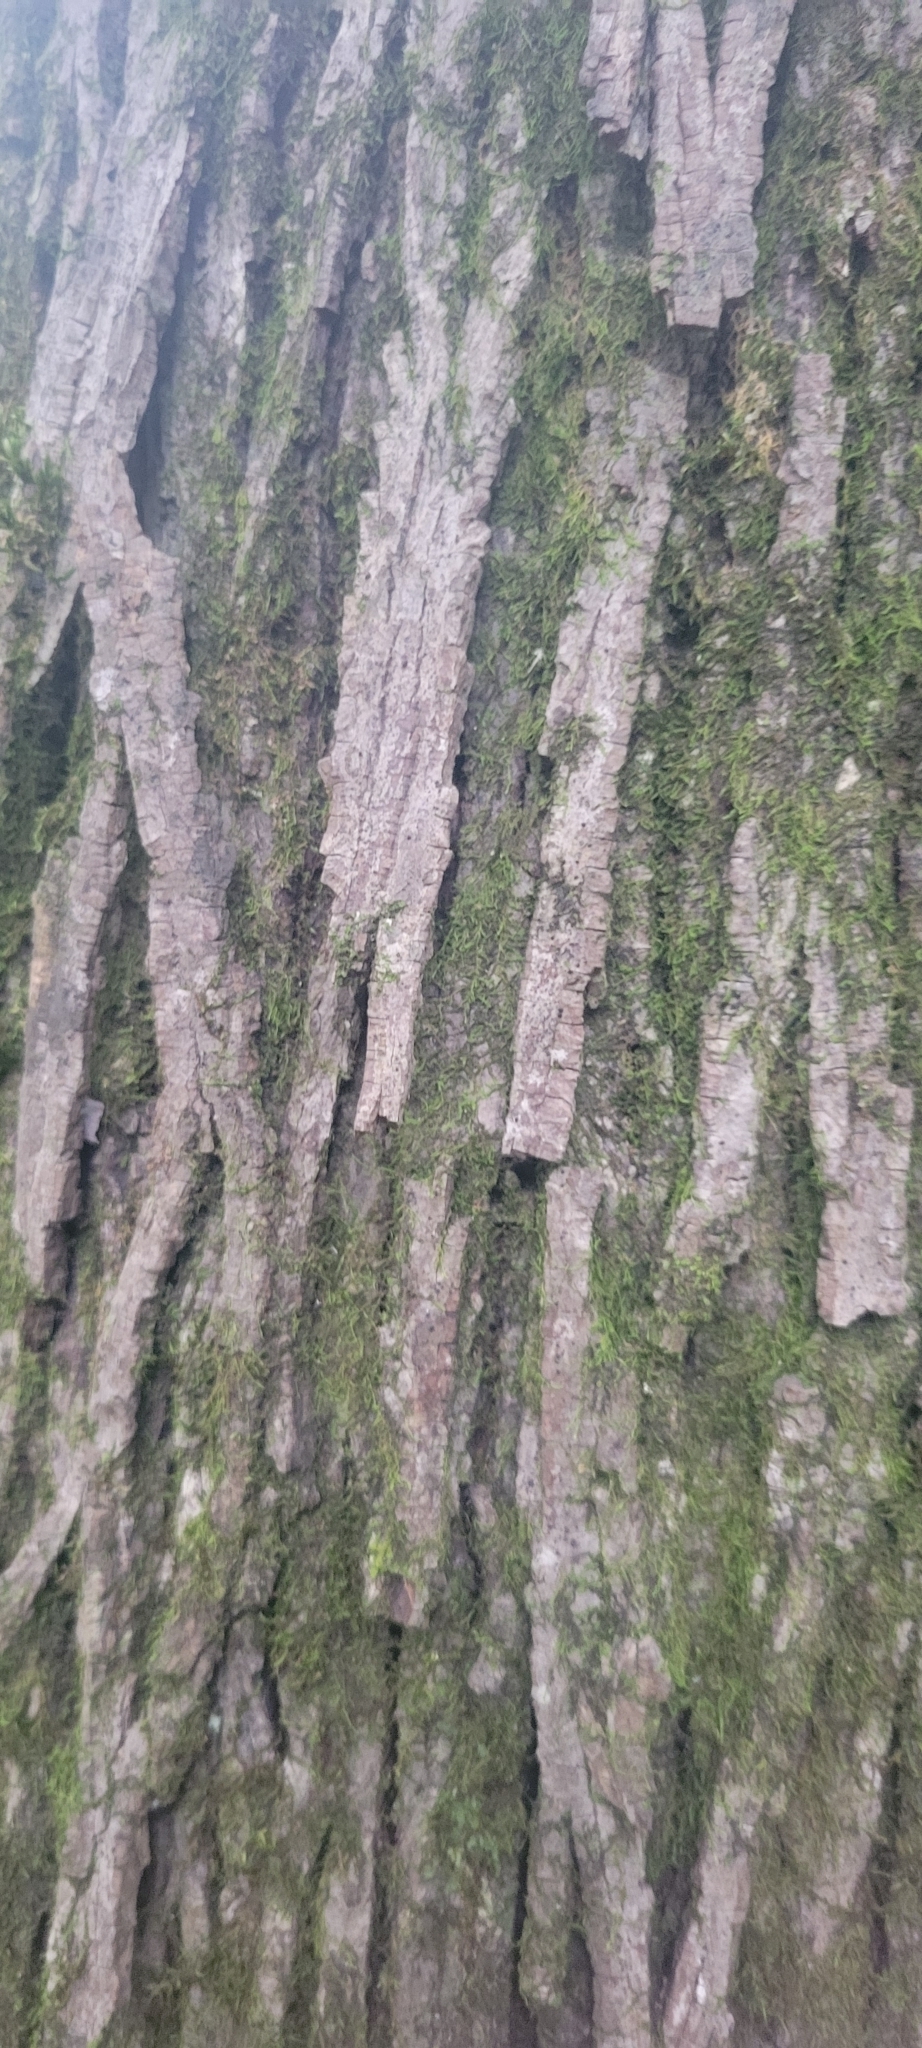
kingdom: Plantae
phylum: Tracheophyta
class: Magnoliopsida
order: Fagales
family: Juglandaceae
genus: Carya
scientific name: Carya ovata
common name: Shagbark hickory
